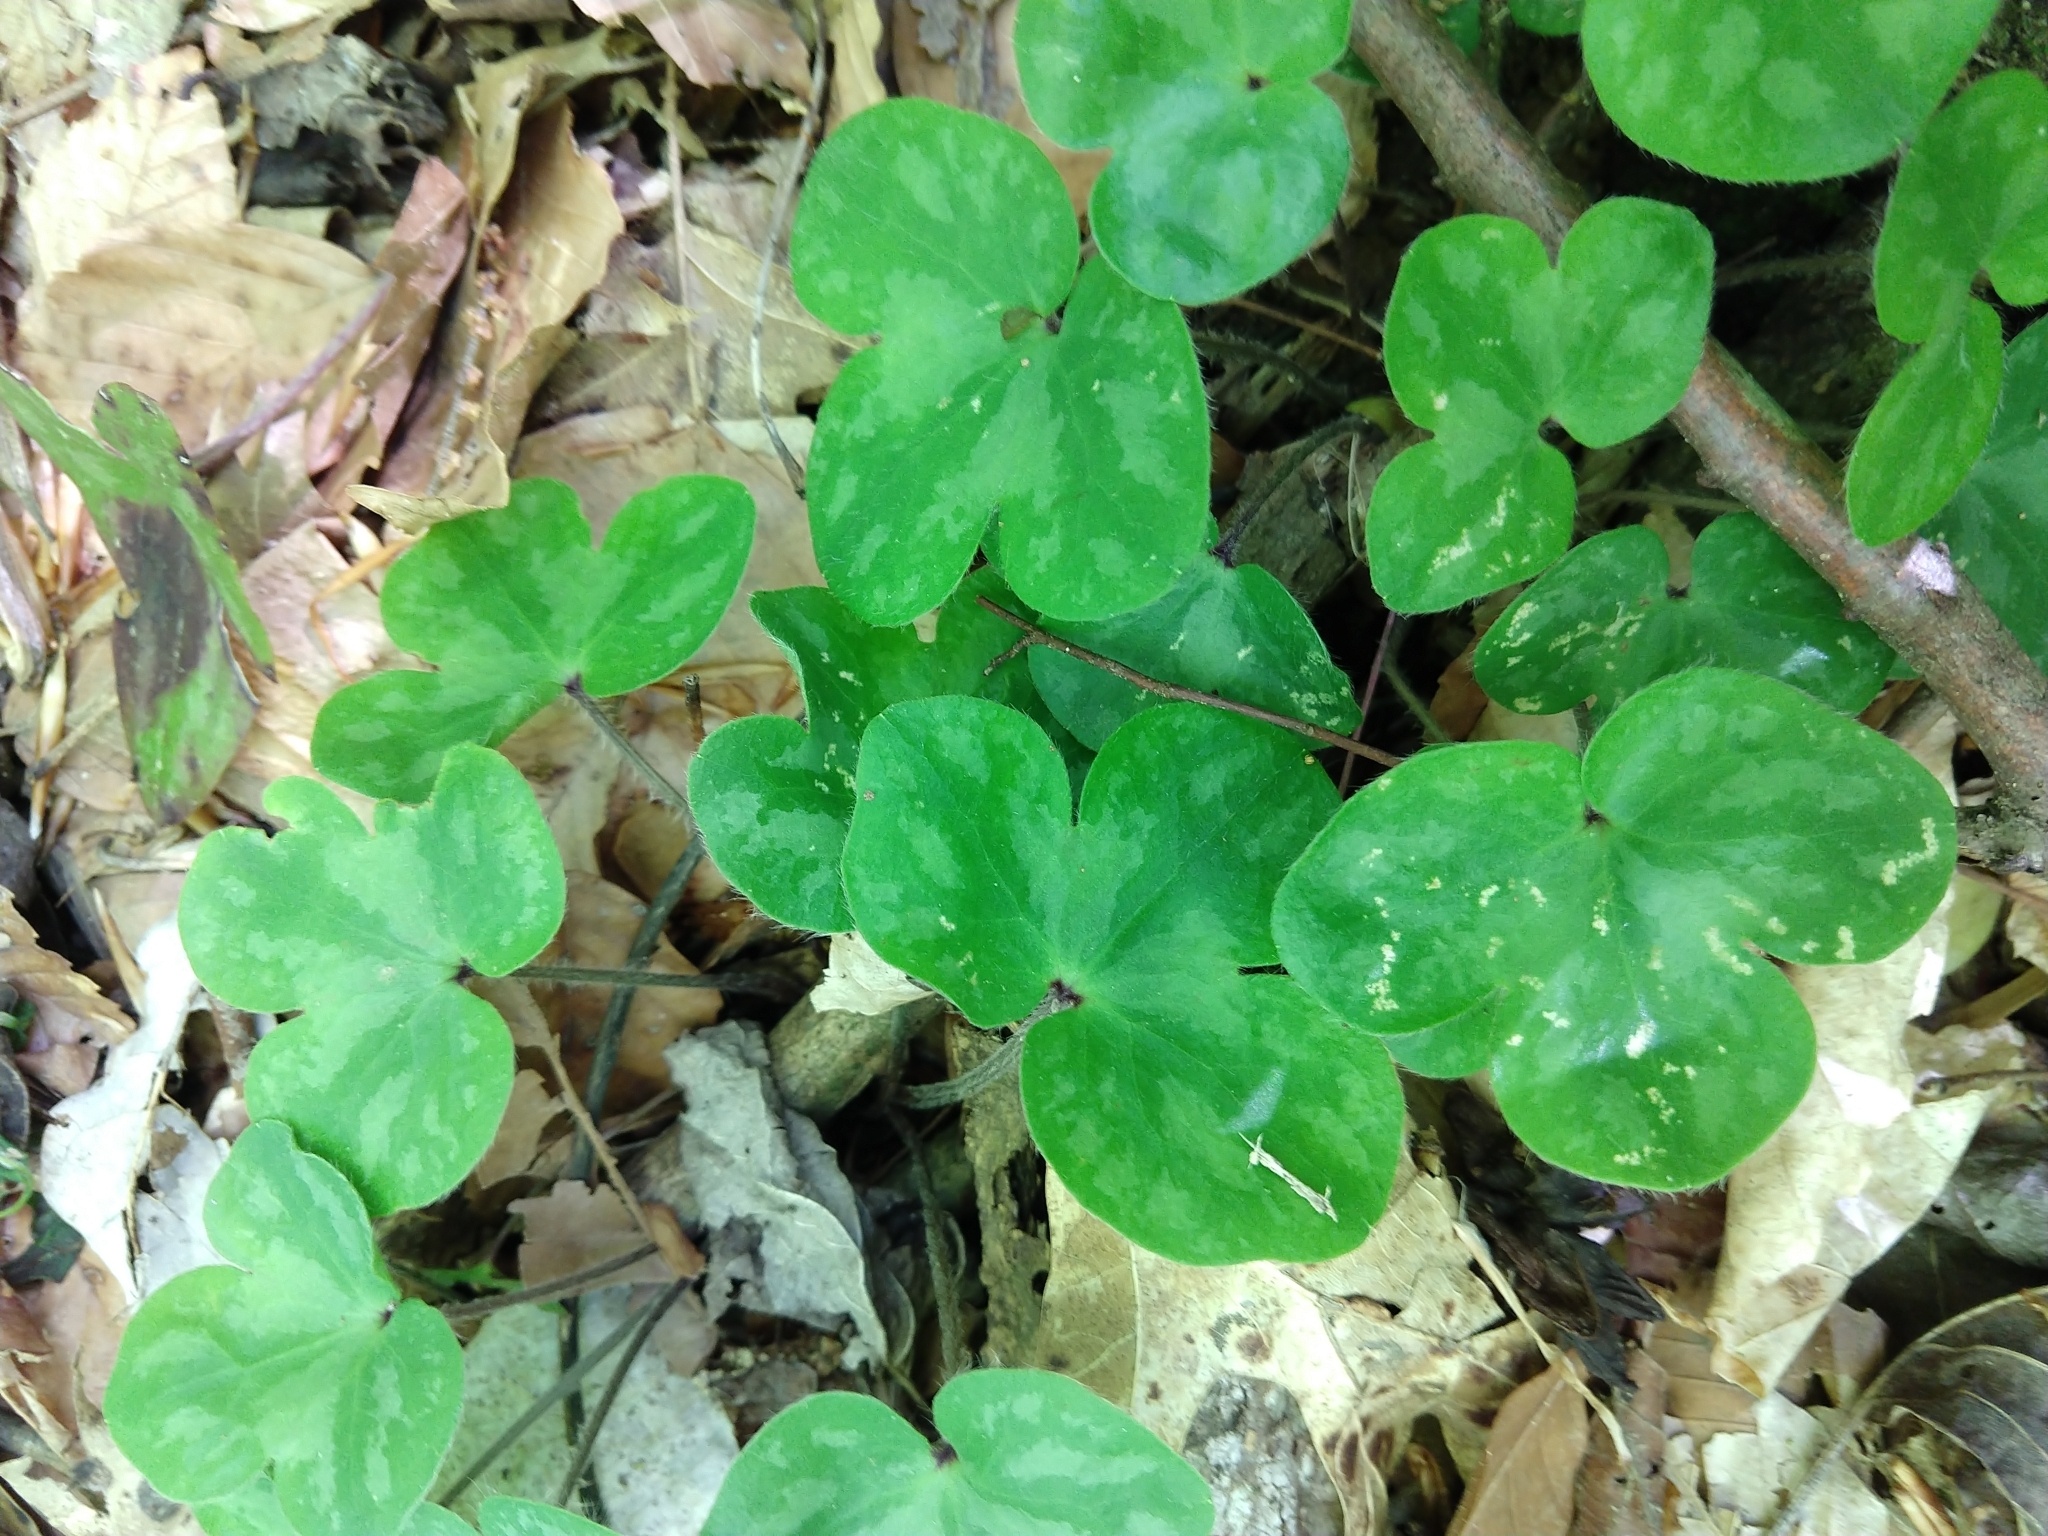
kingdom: Plantae
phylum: Tracheophyta
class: Magnoliopsida
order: Ranunculales
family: Ranunculaceae
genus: Hepatica
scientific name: Hepatica americana
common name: American hepatica
